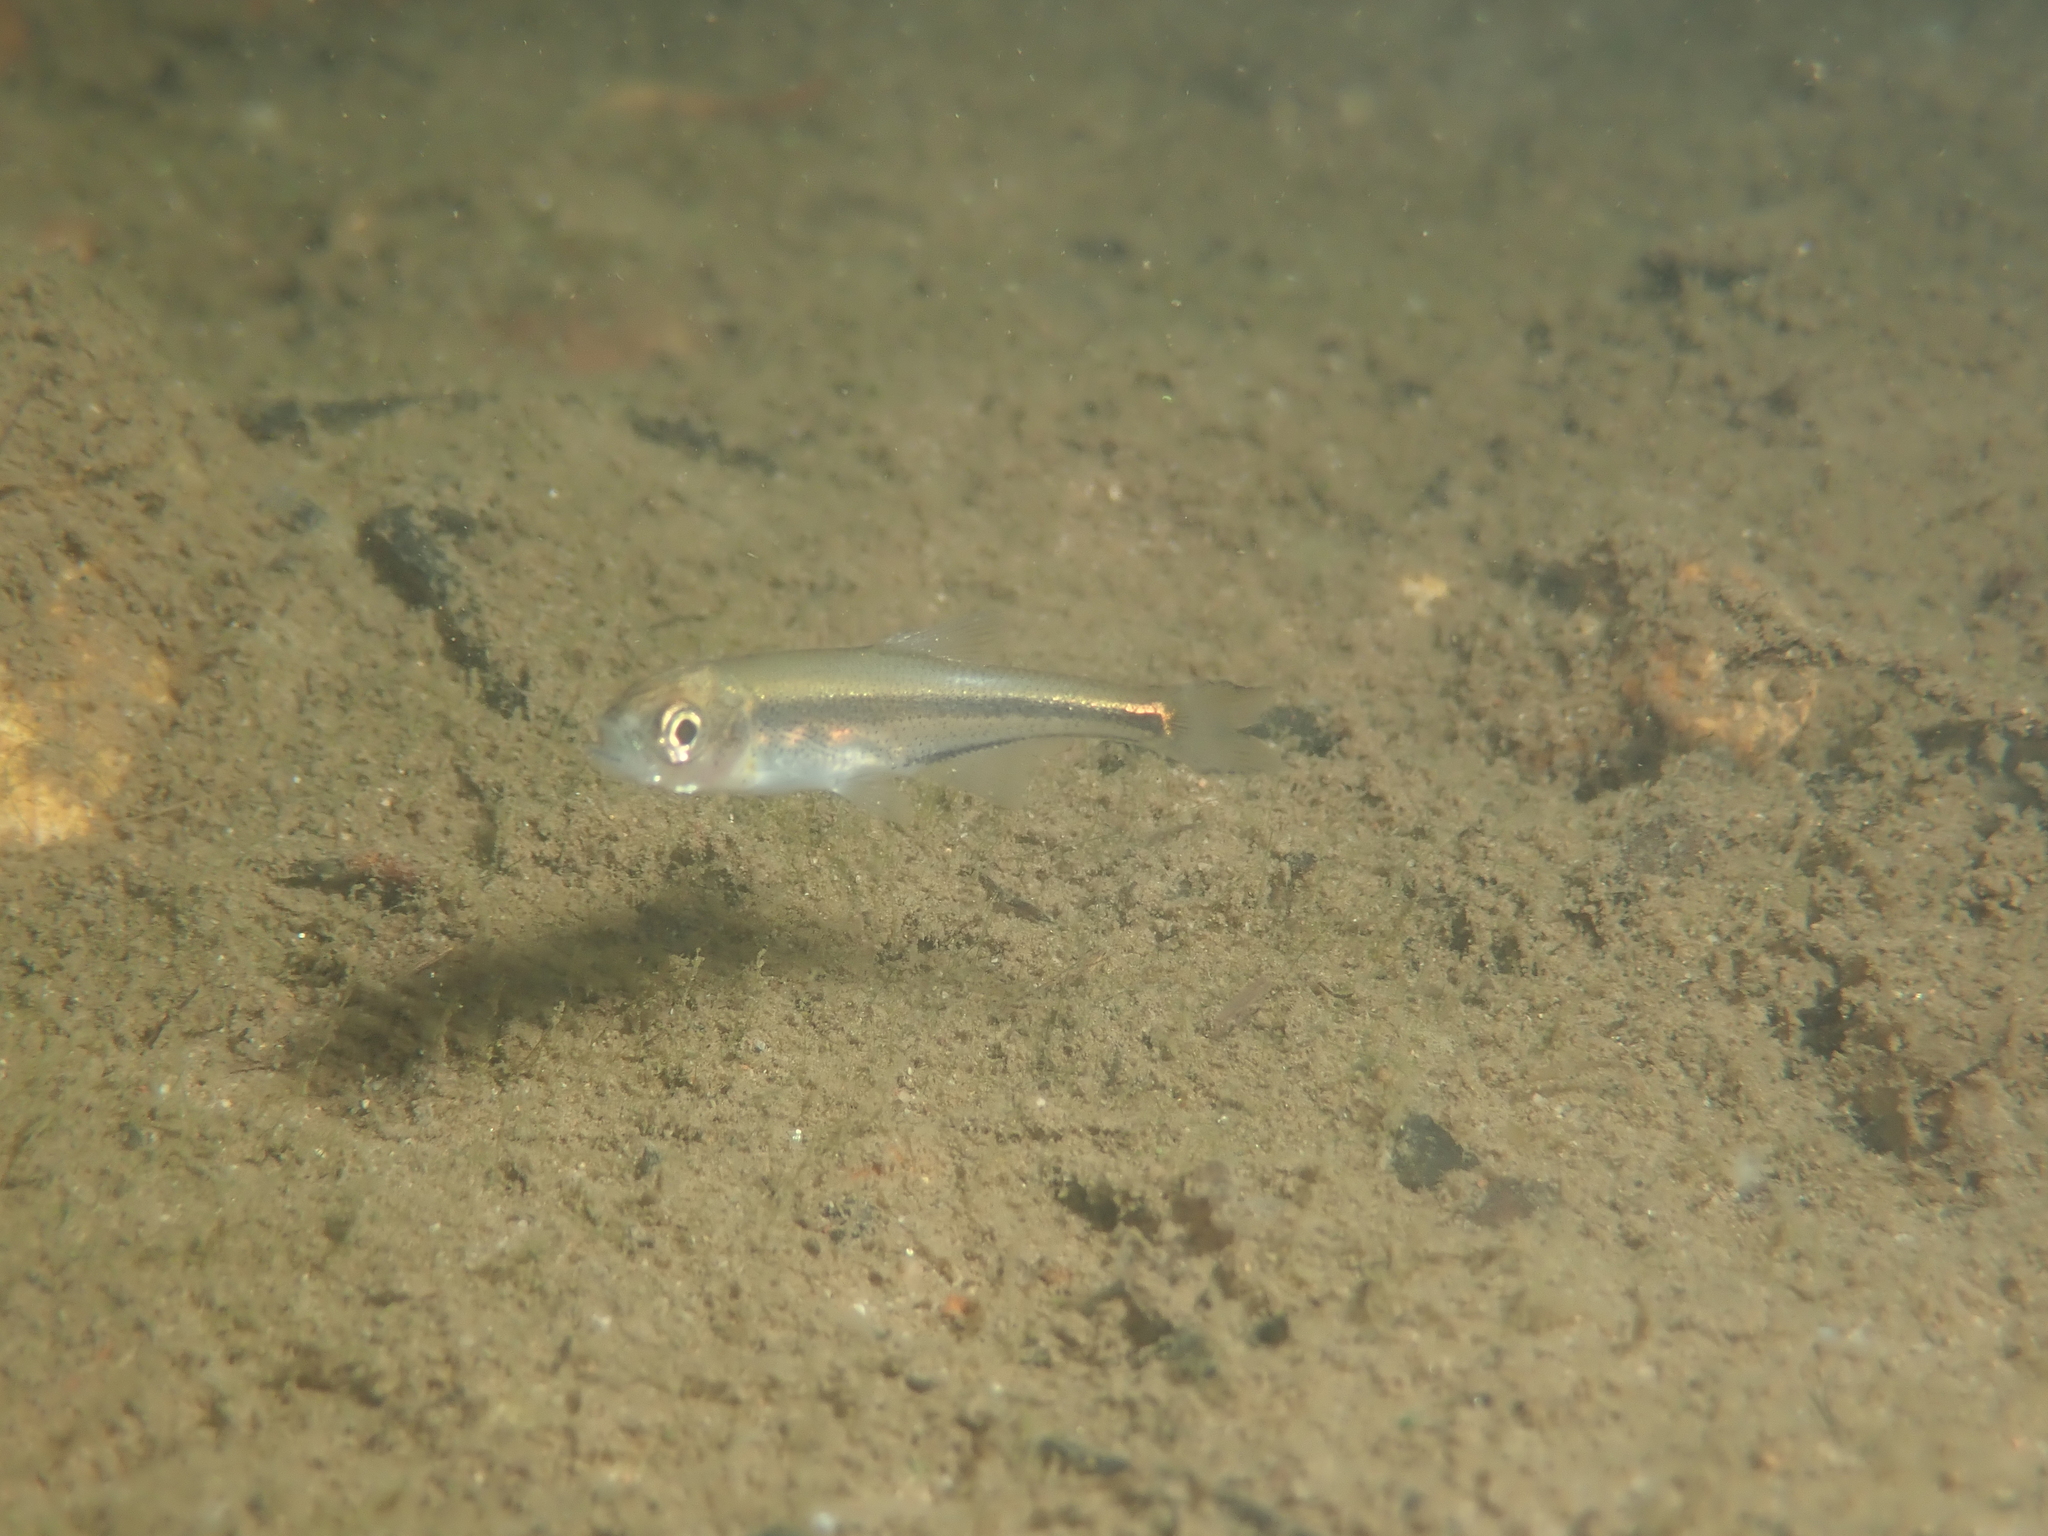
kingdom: Animalia
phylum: Chordata
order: Cypriniformes
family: Cyprinidae
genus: Alburnoides
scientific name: Alburnoides bipunctatus
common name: Spirlin
